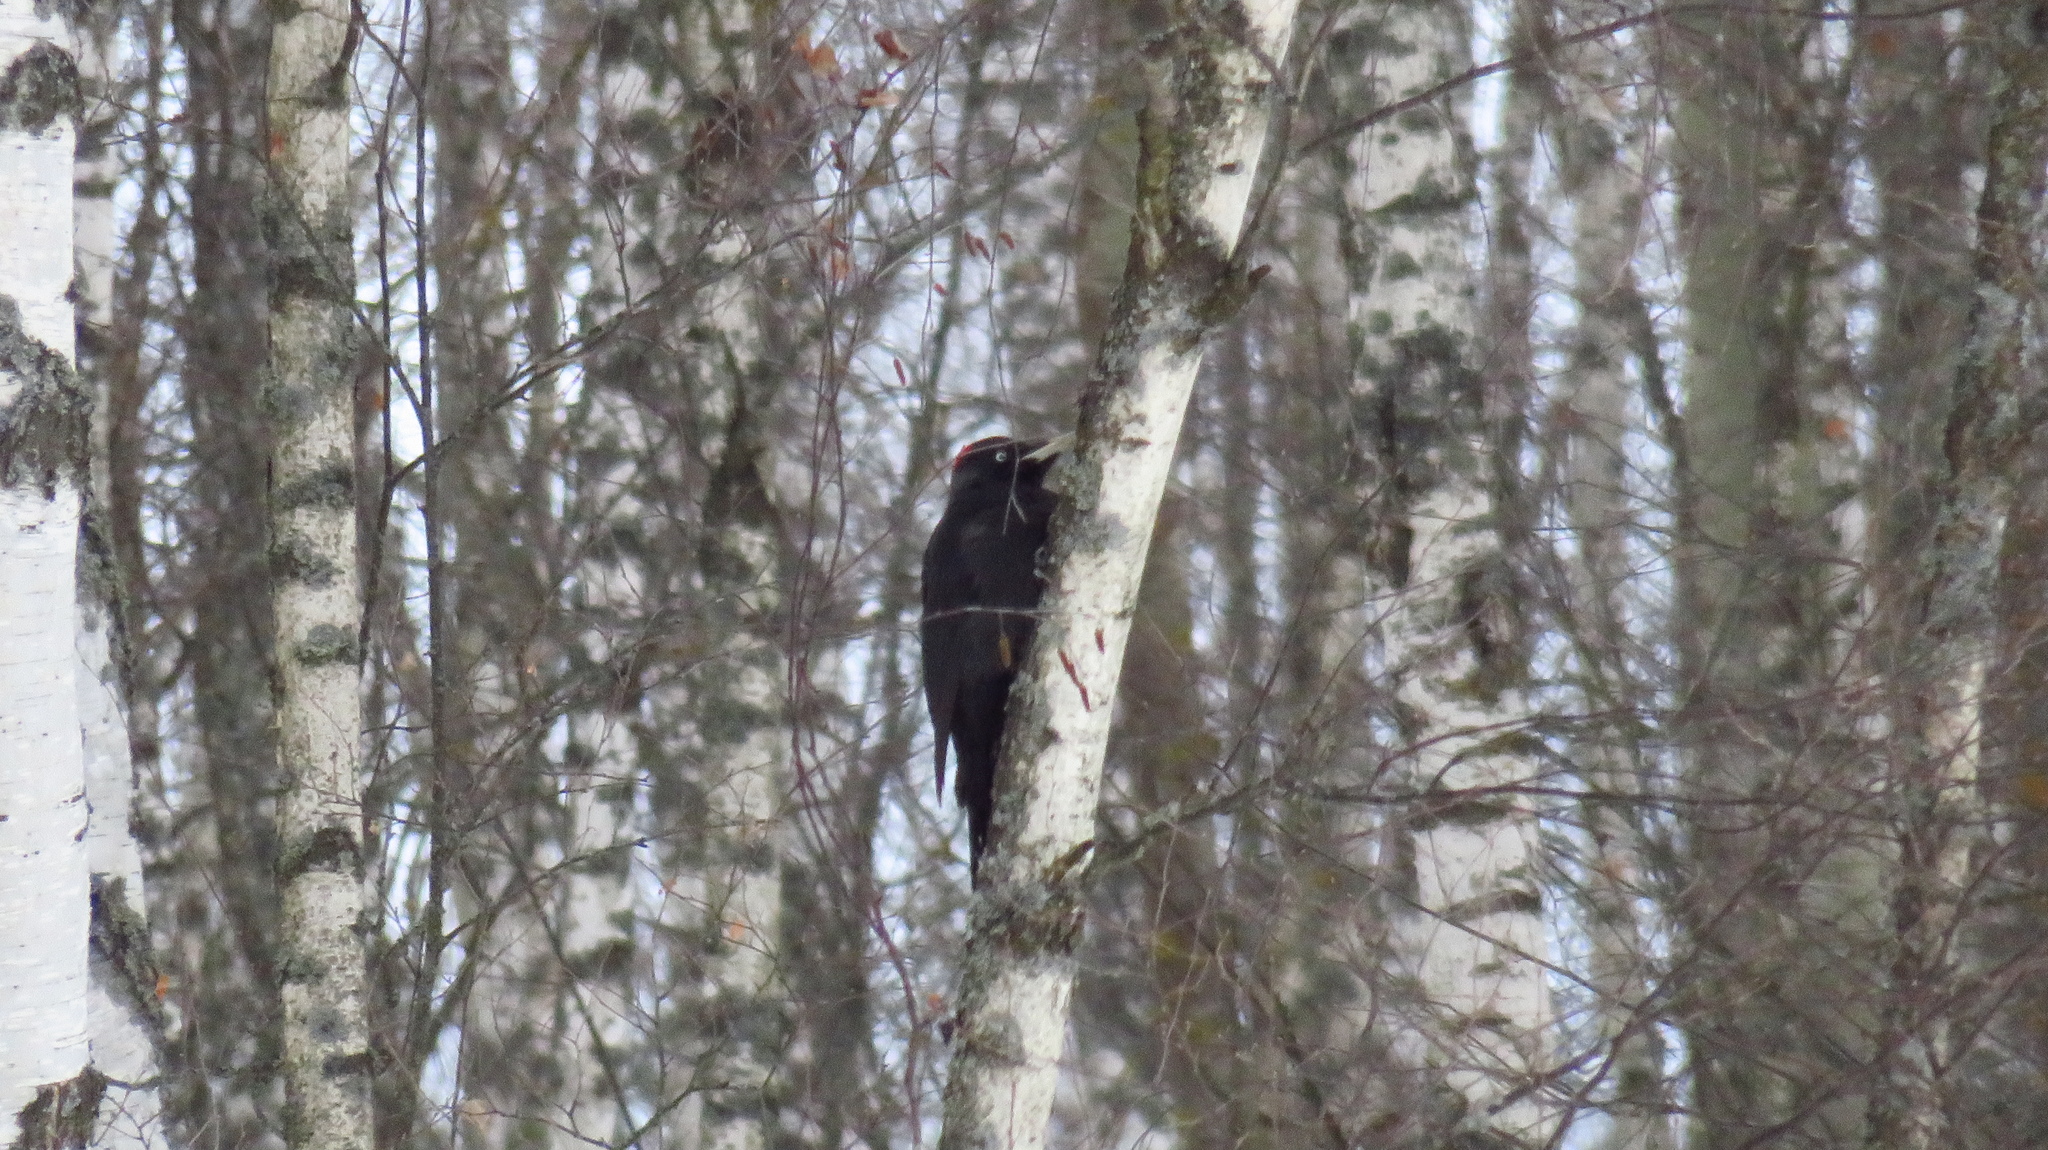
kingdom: Animalia
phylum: Chordata
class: Aves
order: Piciformes
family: Picidae
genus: Dryocopus
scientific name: Dryocopus martius
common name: Black woodpecker
